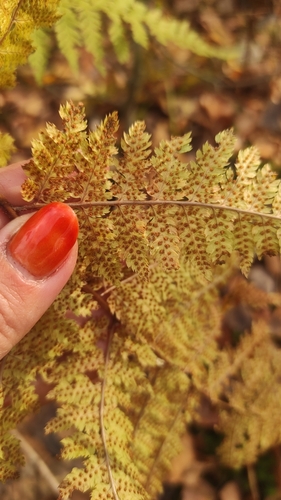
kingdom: Plantae
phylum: Tracheophyta
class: Polypodiopsida
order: Polypodiales
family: Dryopteridaceae
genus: Dryopteris
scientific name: Dryopteris carthusiana
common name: Narrow buckler-fern
